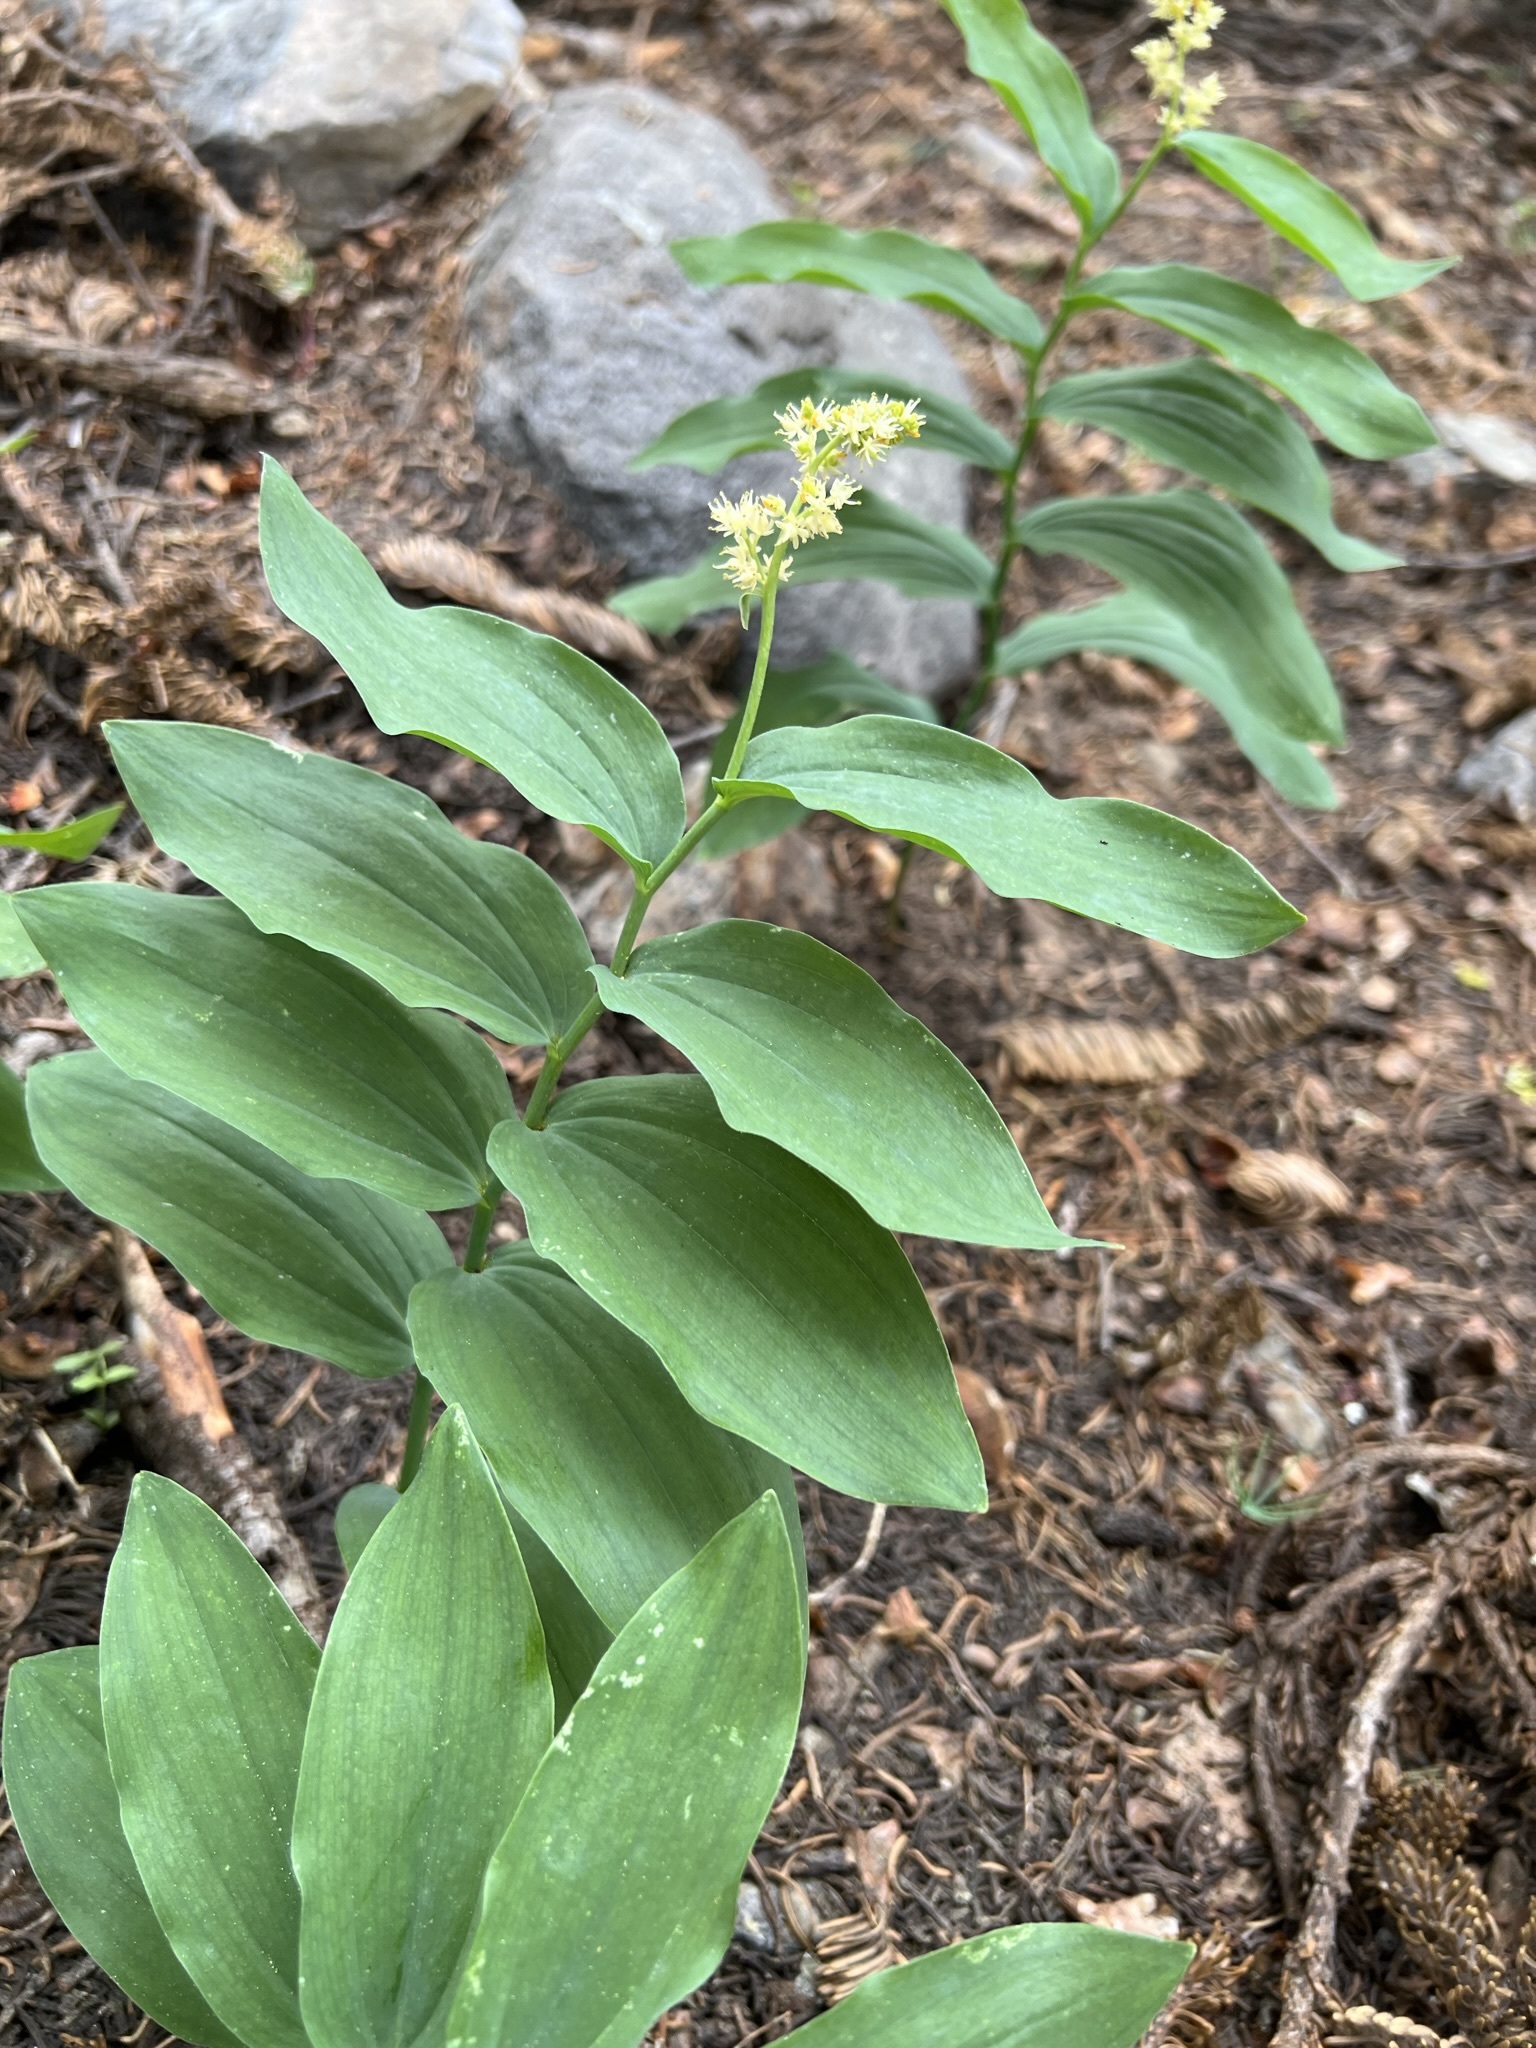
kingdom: Plantae
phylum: Tracheophyta
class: Liliopsida
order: Asparagales
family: Asparagaceae
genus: Maianthemum
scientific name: Maianthemum racemosum
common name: False spikenard
